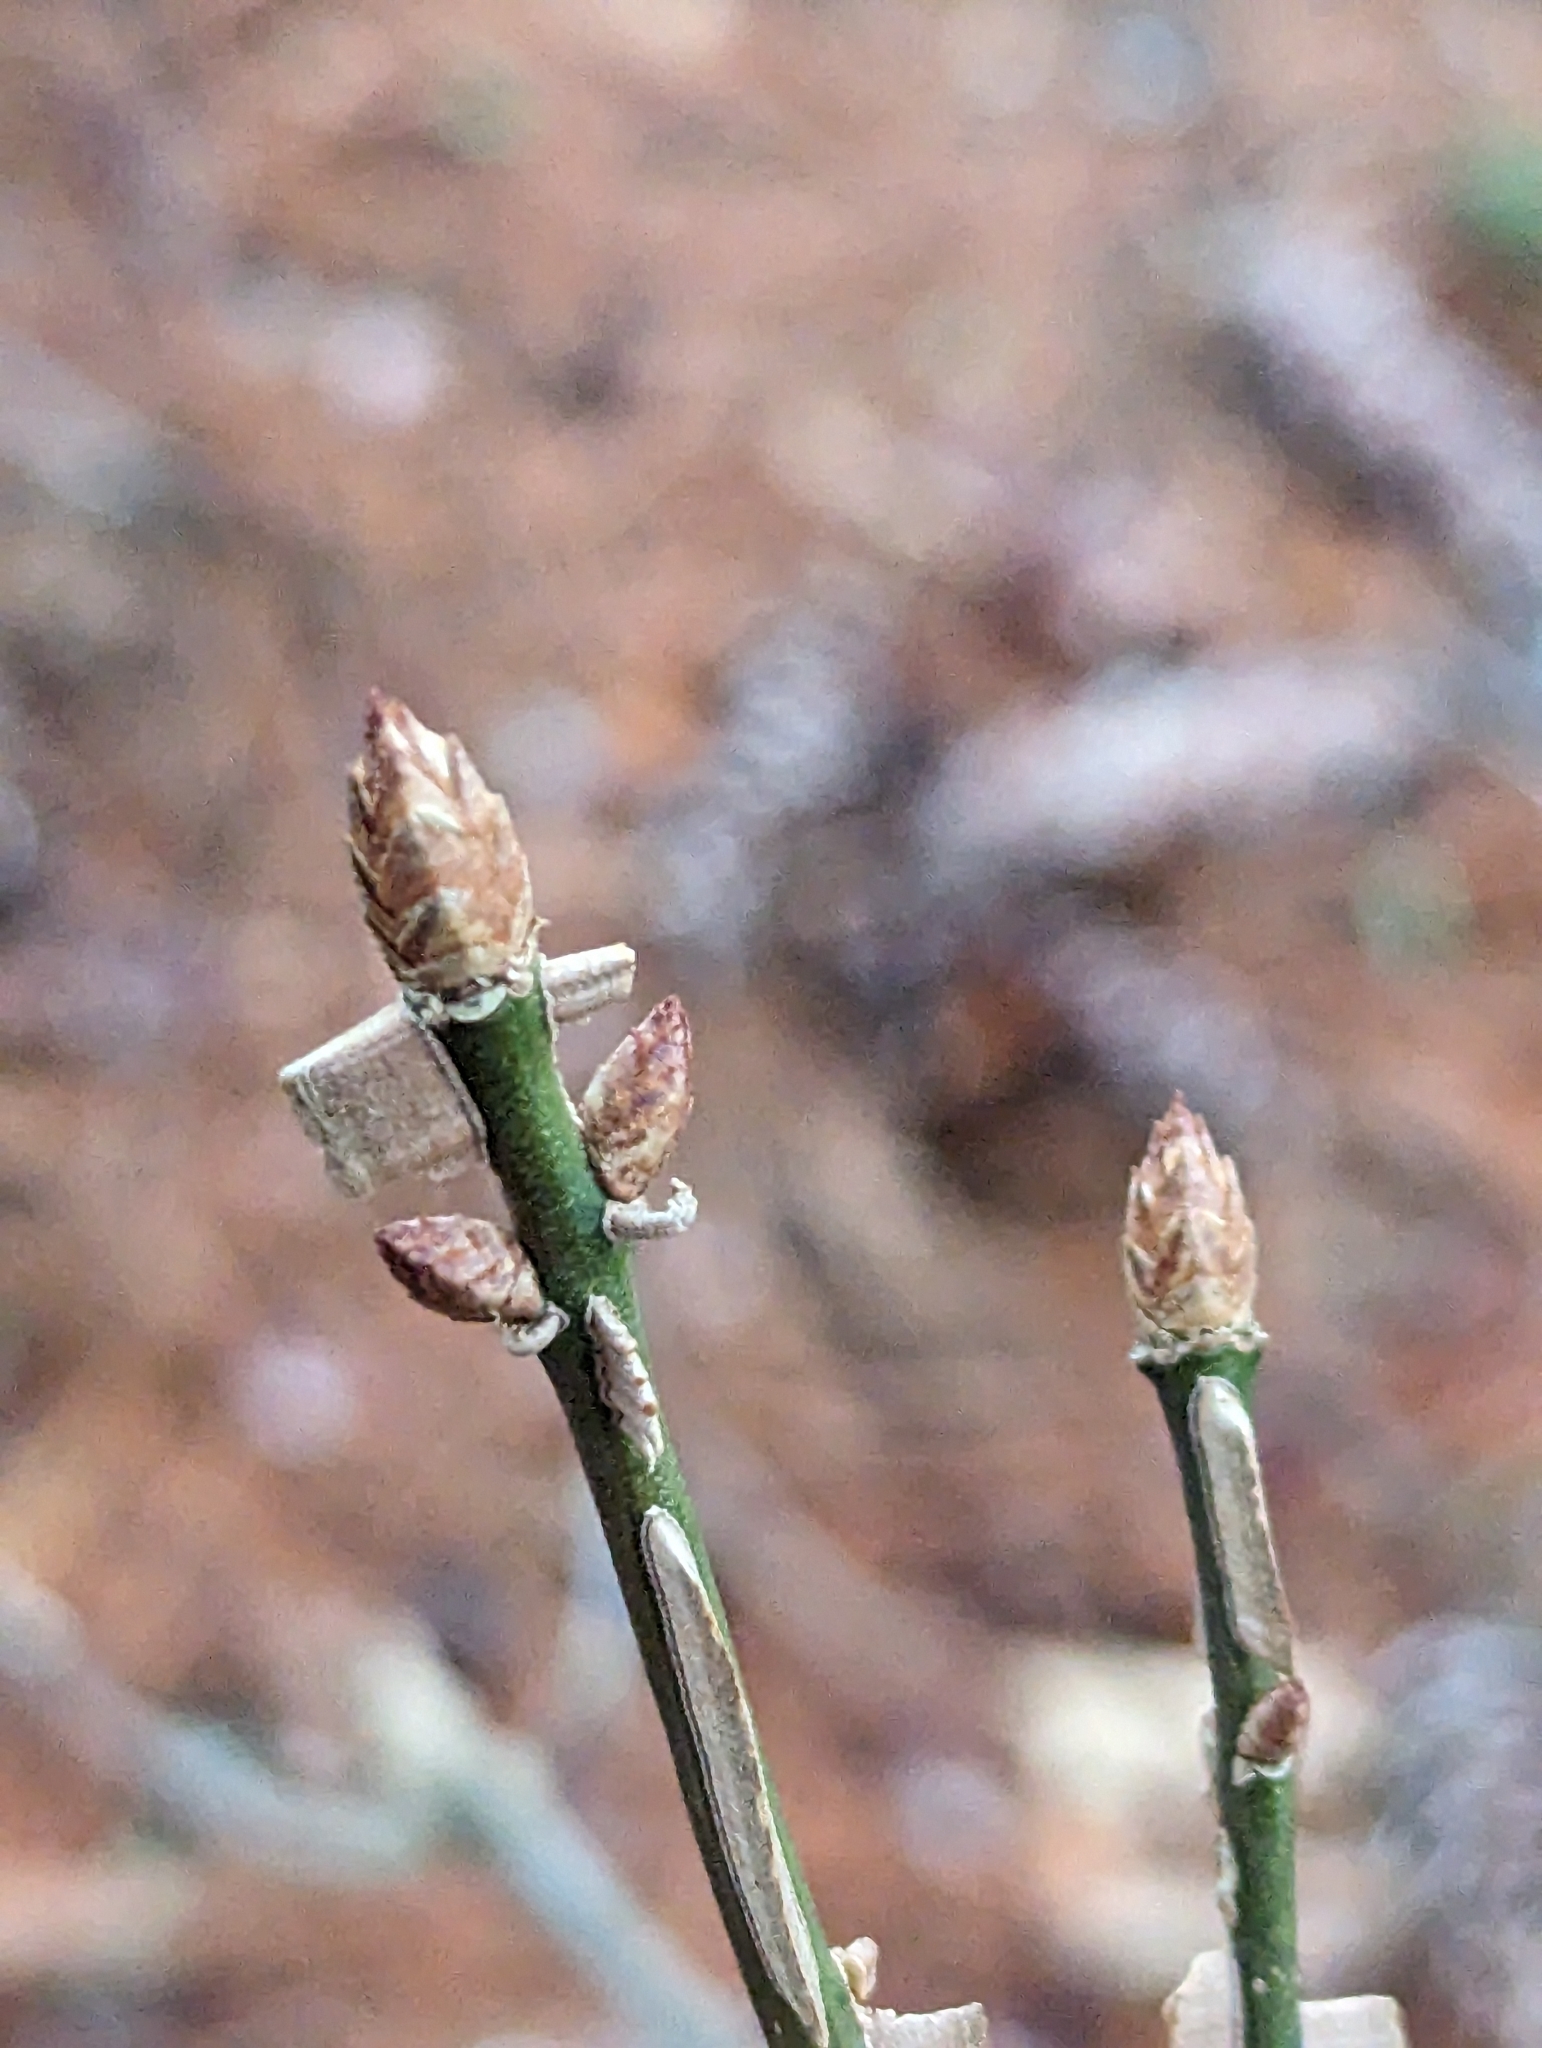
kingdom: Plantae
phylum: Tracheophyta
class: Magnoliopsida
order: Celastrales
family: Celastraceae
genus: Euonymus
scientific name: Euonymus alatus
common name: Winged euonymus
